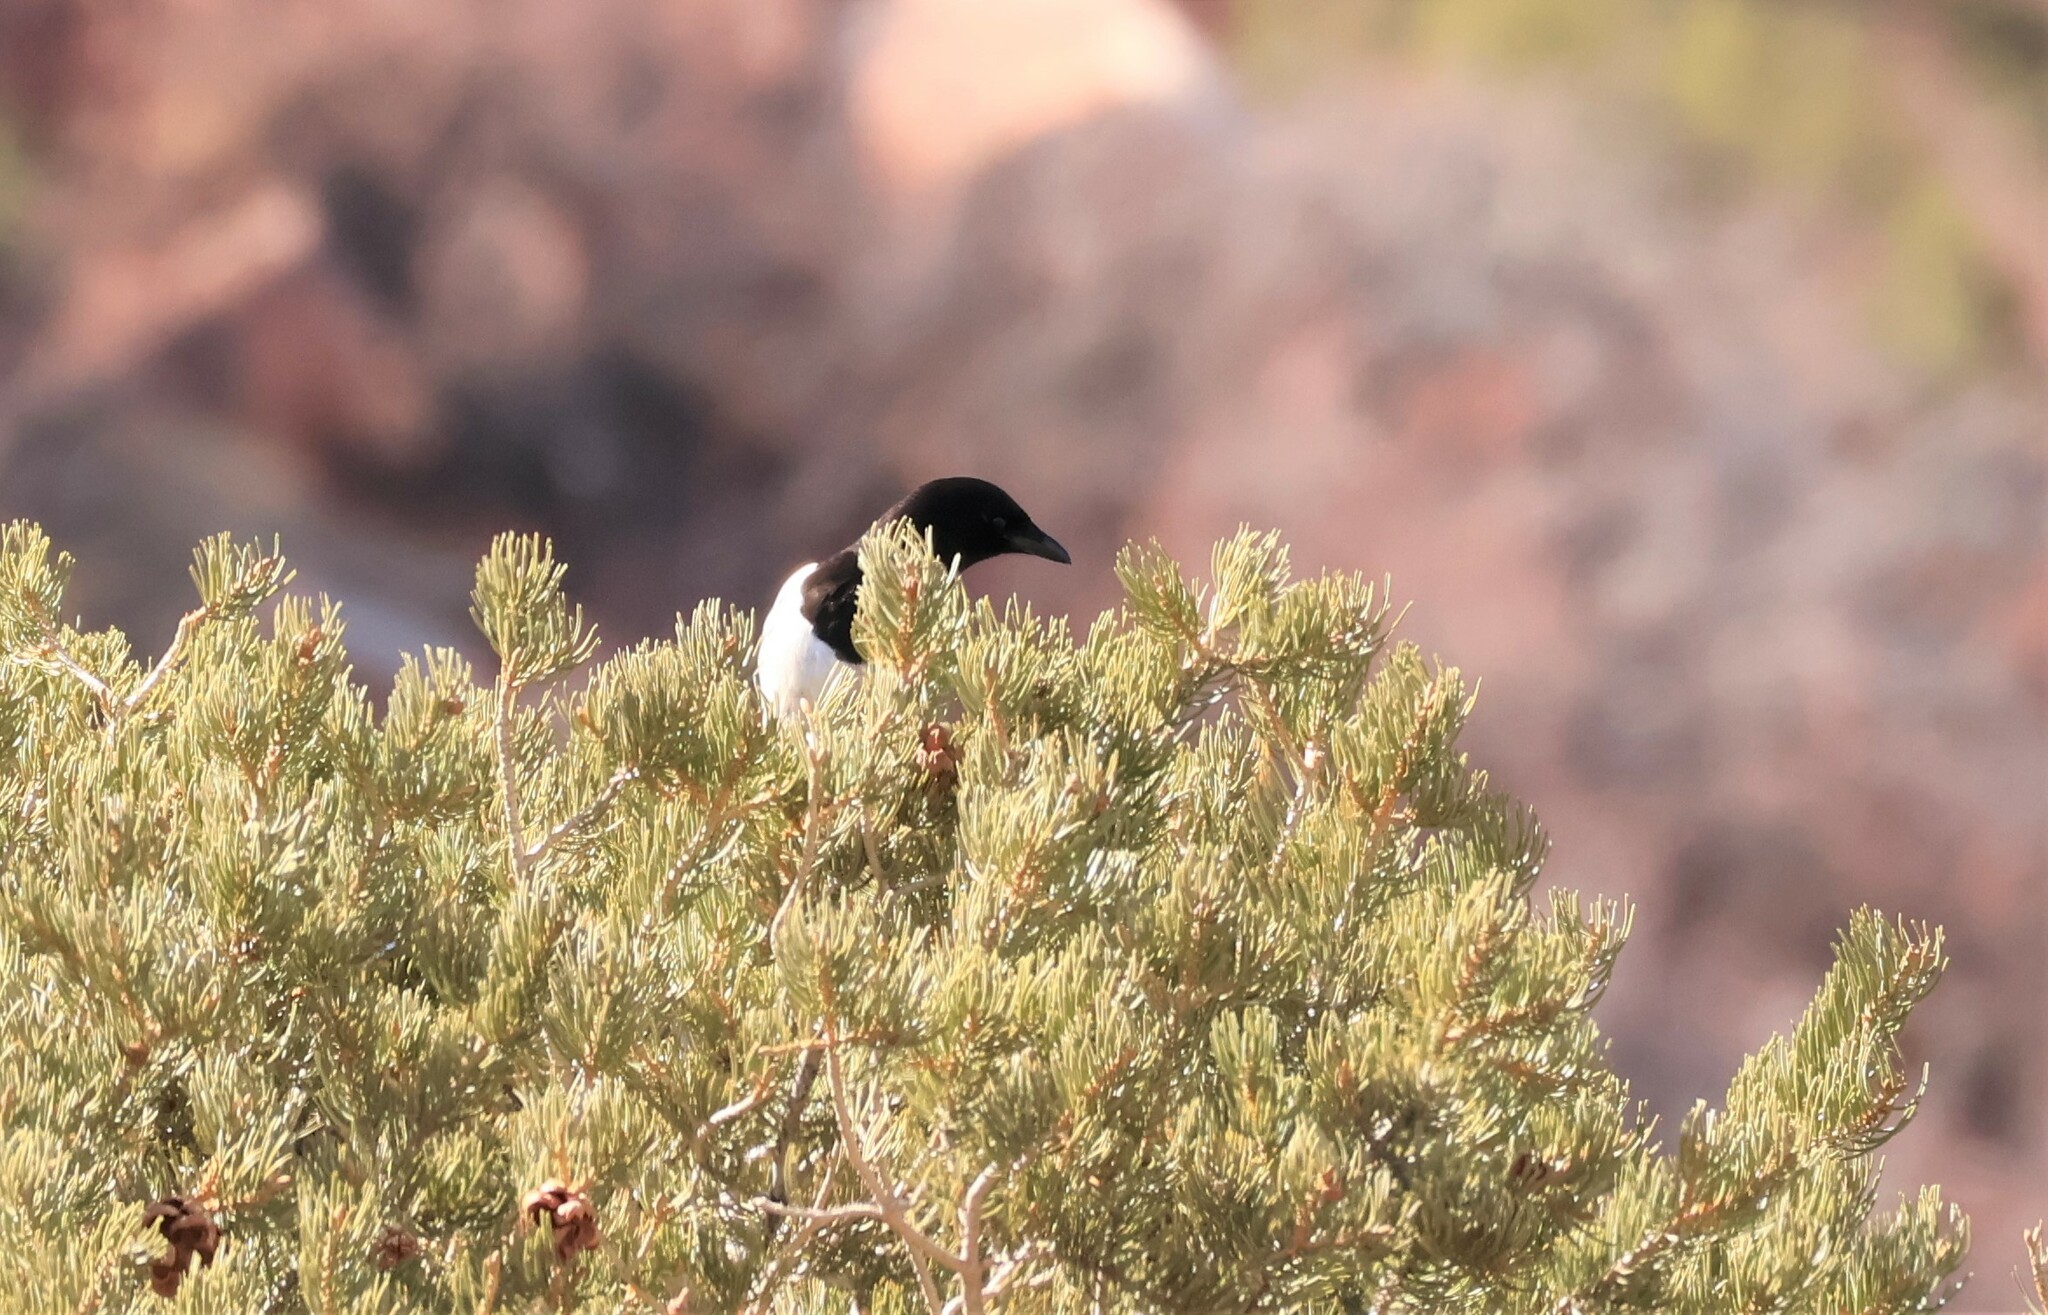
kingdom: Animalia
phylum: Chordata
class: Aves
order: Passeriformes
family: Corvidae
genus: Pica
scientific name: Pica hudsonia
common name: Black-billed magpie
